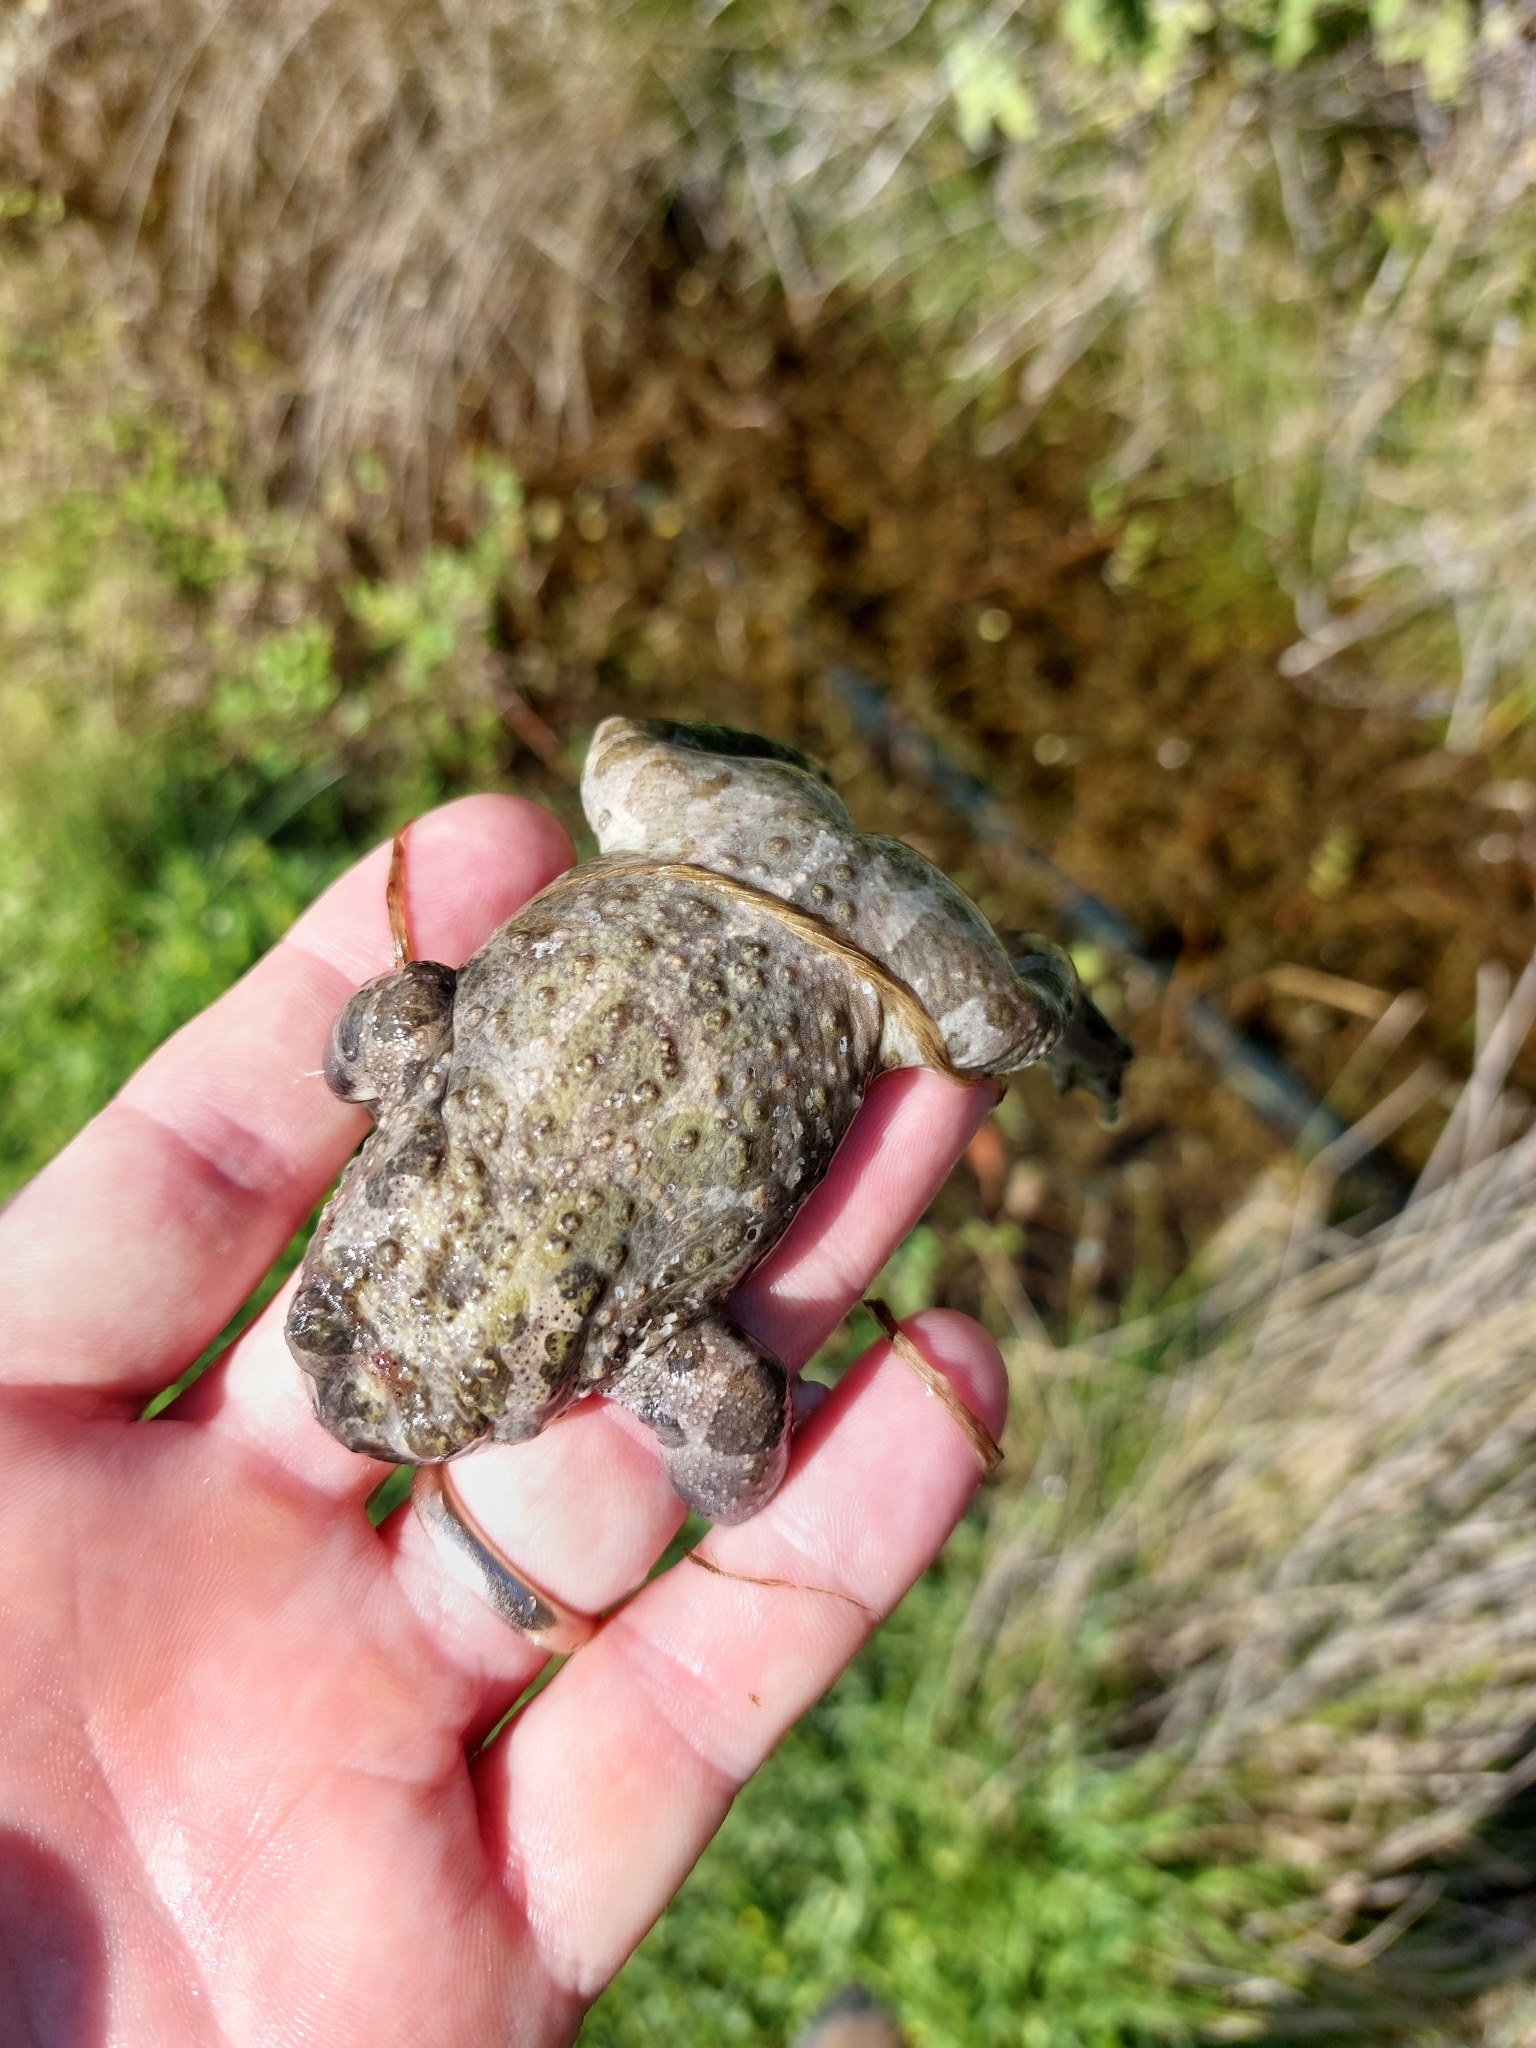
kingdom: Animalia
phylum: Chordata
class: Amphibia
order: Anura
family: Bufonidae
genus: Bufotes
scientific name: Bufotes viridis
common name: European green toad
